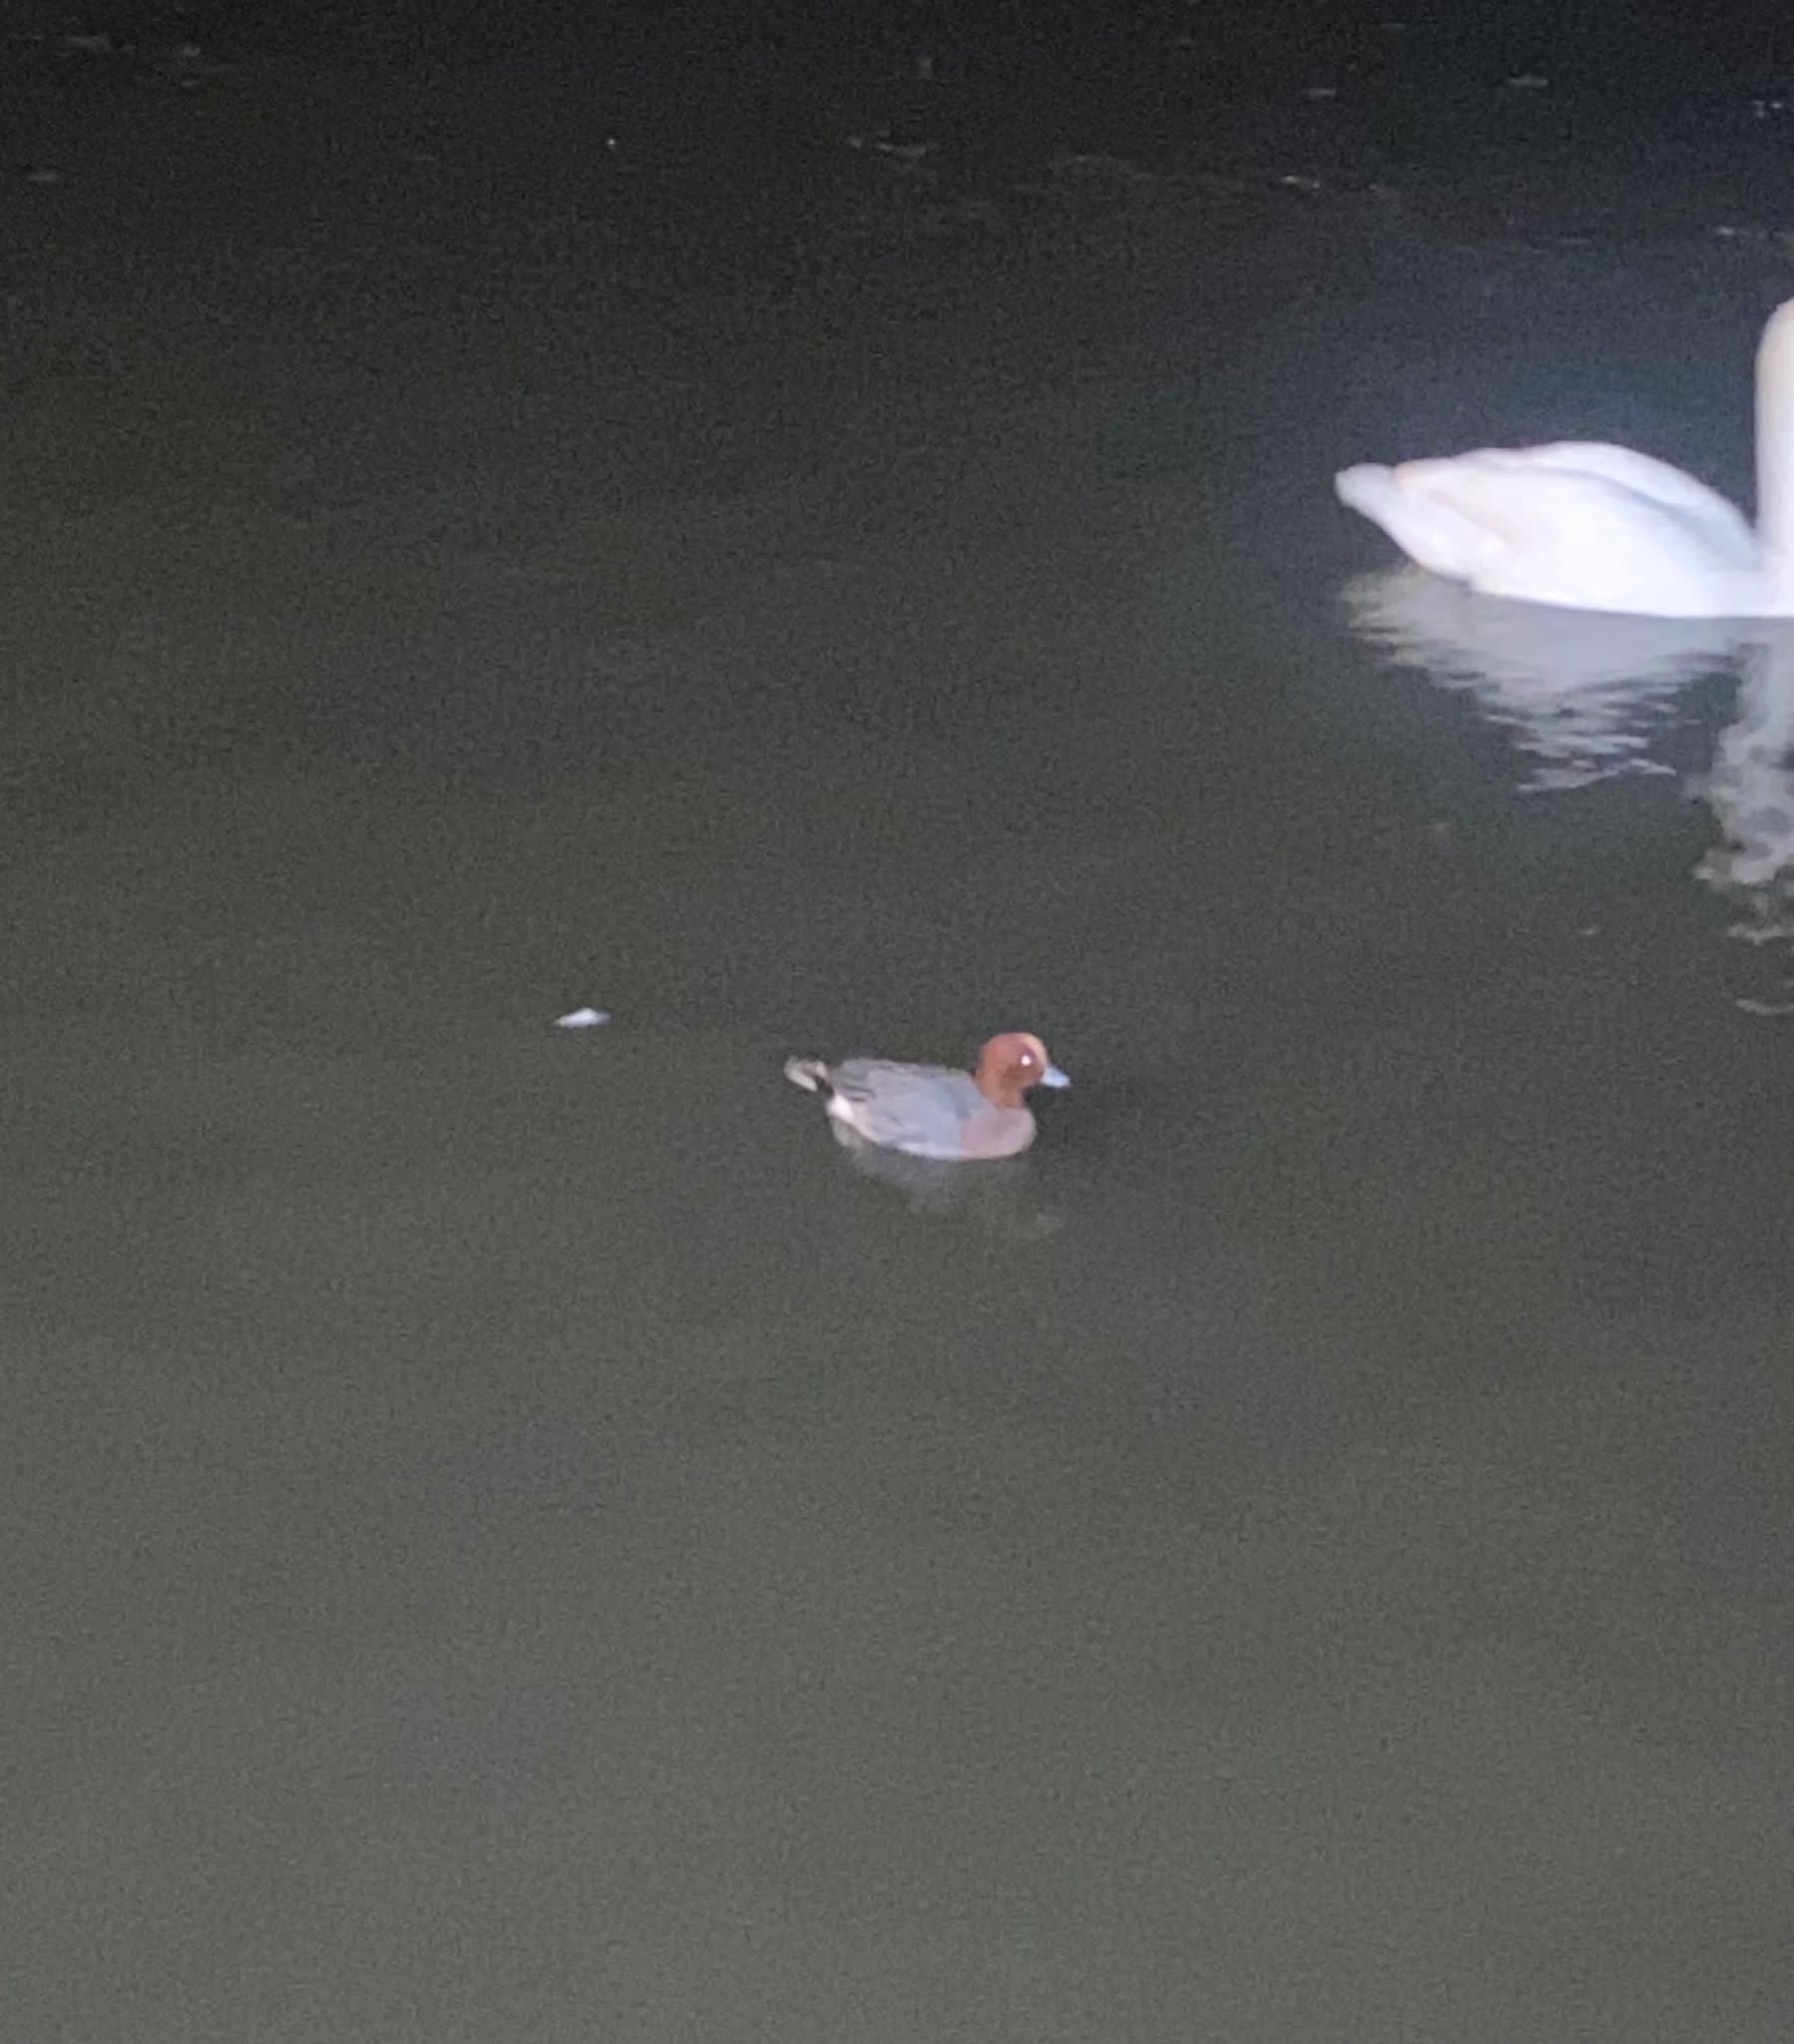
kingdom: Animalia
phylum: Chordata
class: Aves
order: Anseriformes
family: Anatidae
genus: Mareca
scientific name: Mareca penelope
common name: Eurasian wigeon
